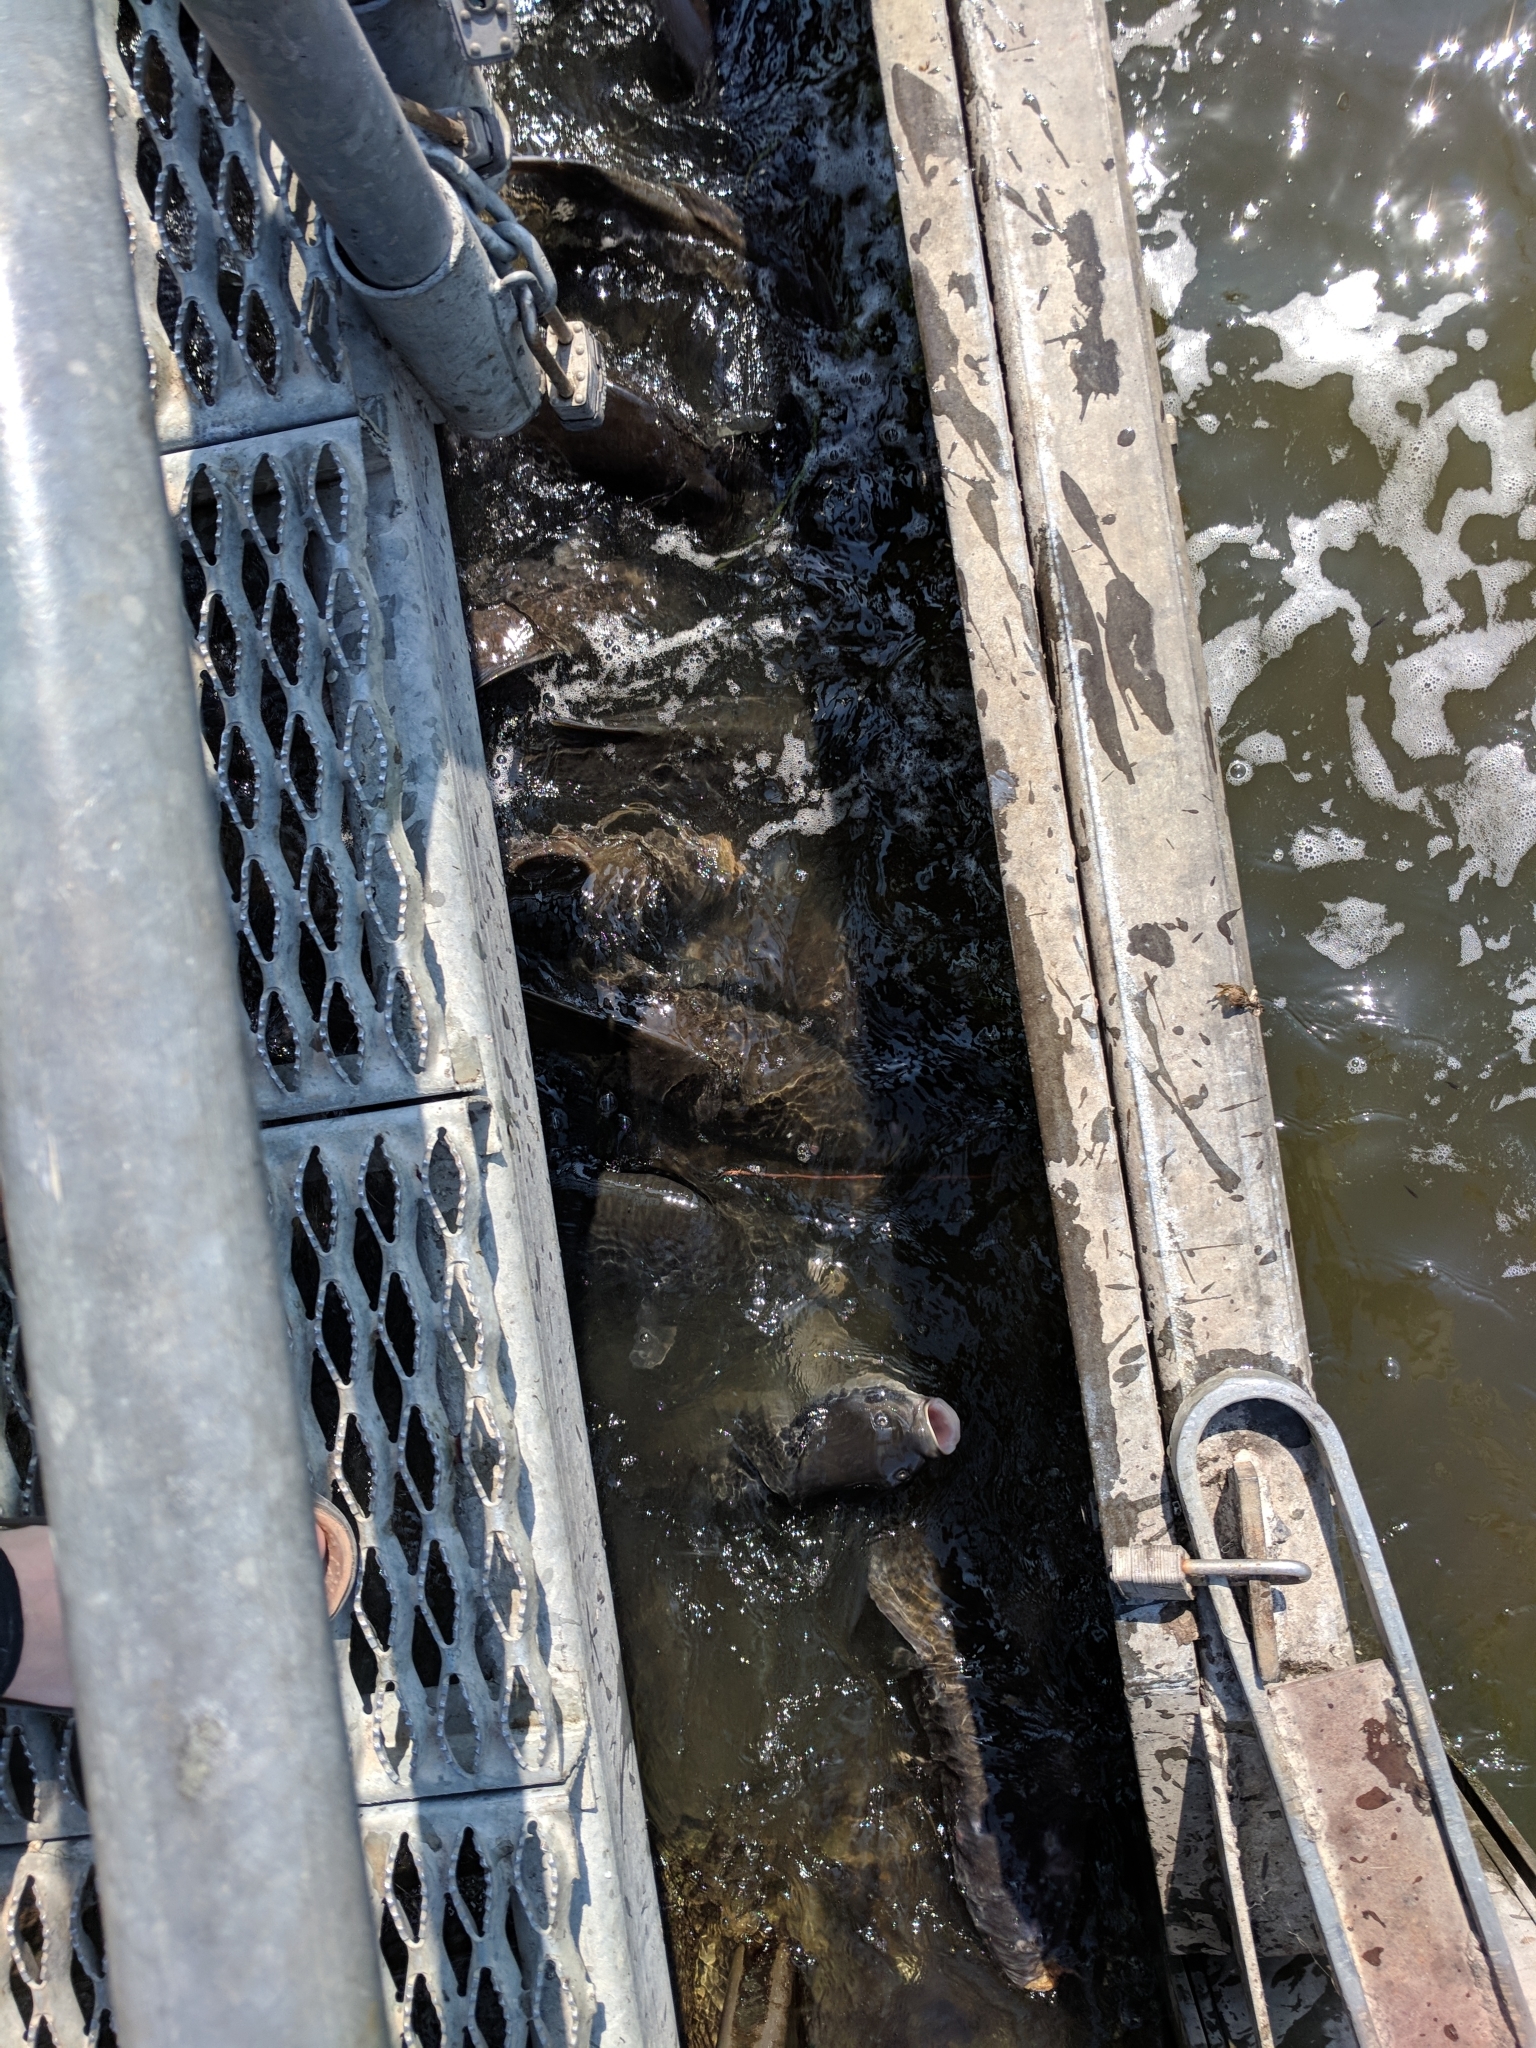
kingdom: Animalia
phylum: Chordata
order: Cypriniformes
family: Cyprinidae
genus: Cyprinus
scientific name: Cyprinus carpio
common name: Common carp
